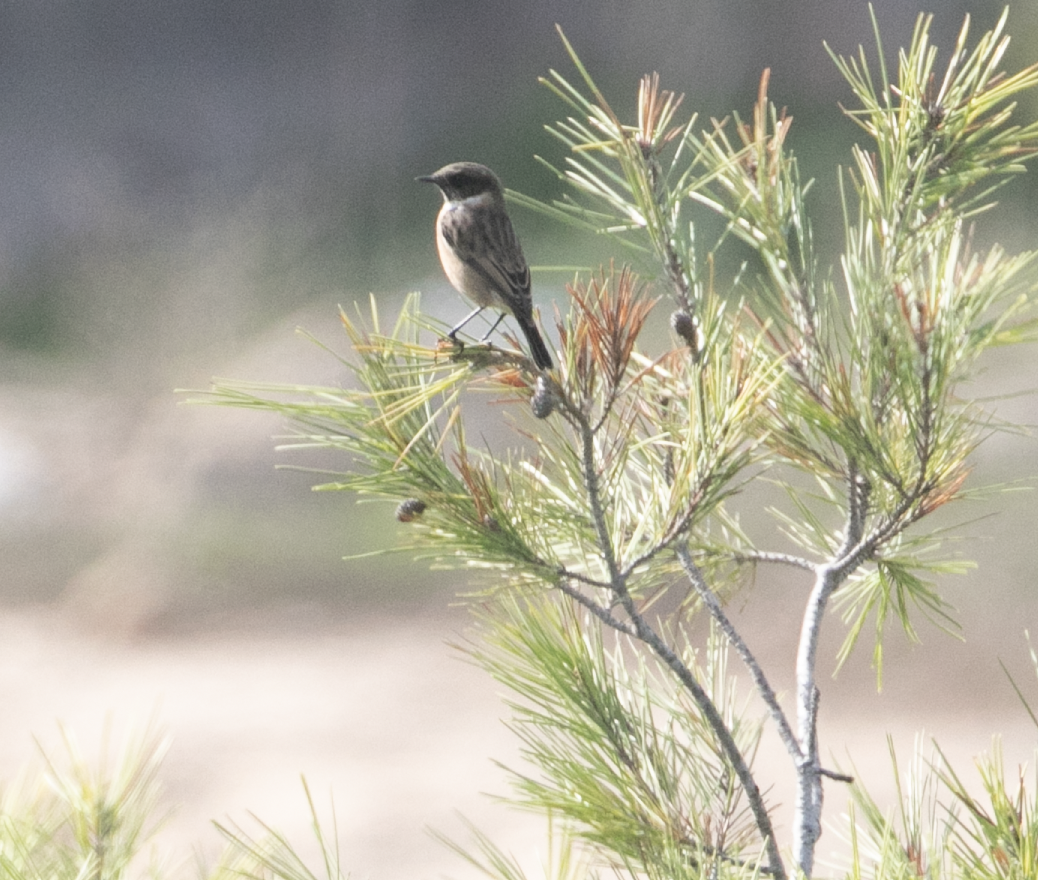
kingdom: Animalia
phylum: Chordata
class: Aves
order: Passeriformes
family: Muscicapidae
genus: Saxicola
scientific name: Saxicola rubicola
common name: European stonechat
